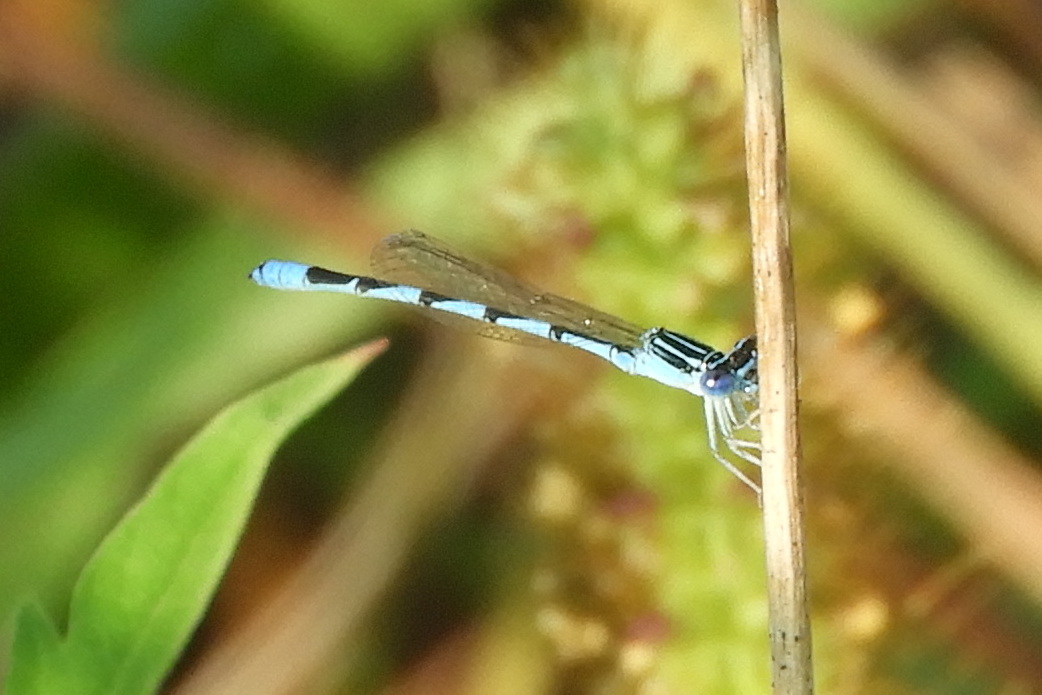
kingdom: Animalia
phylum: Arthropoda
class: Insecta
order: Odonata
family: Coenagrionidae
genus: Enallagma
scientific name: Enallagma basidens
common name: Double-striped bluet
